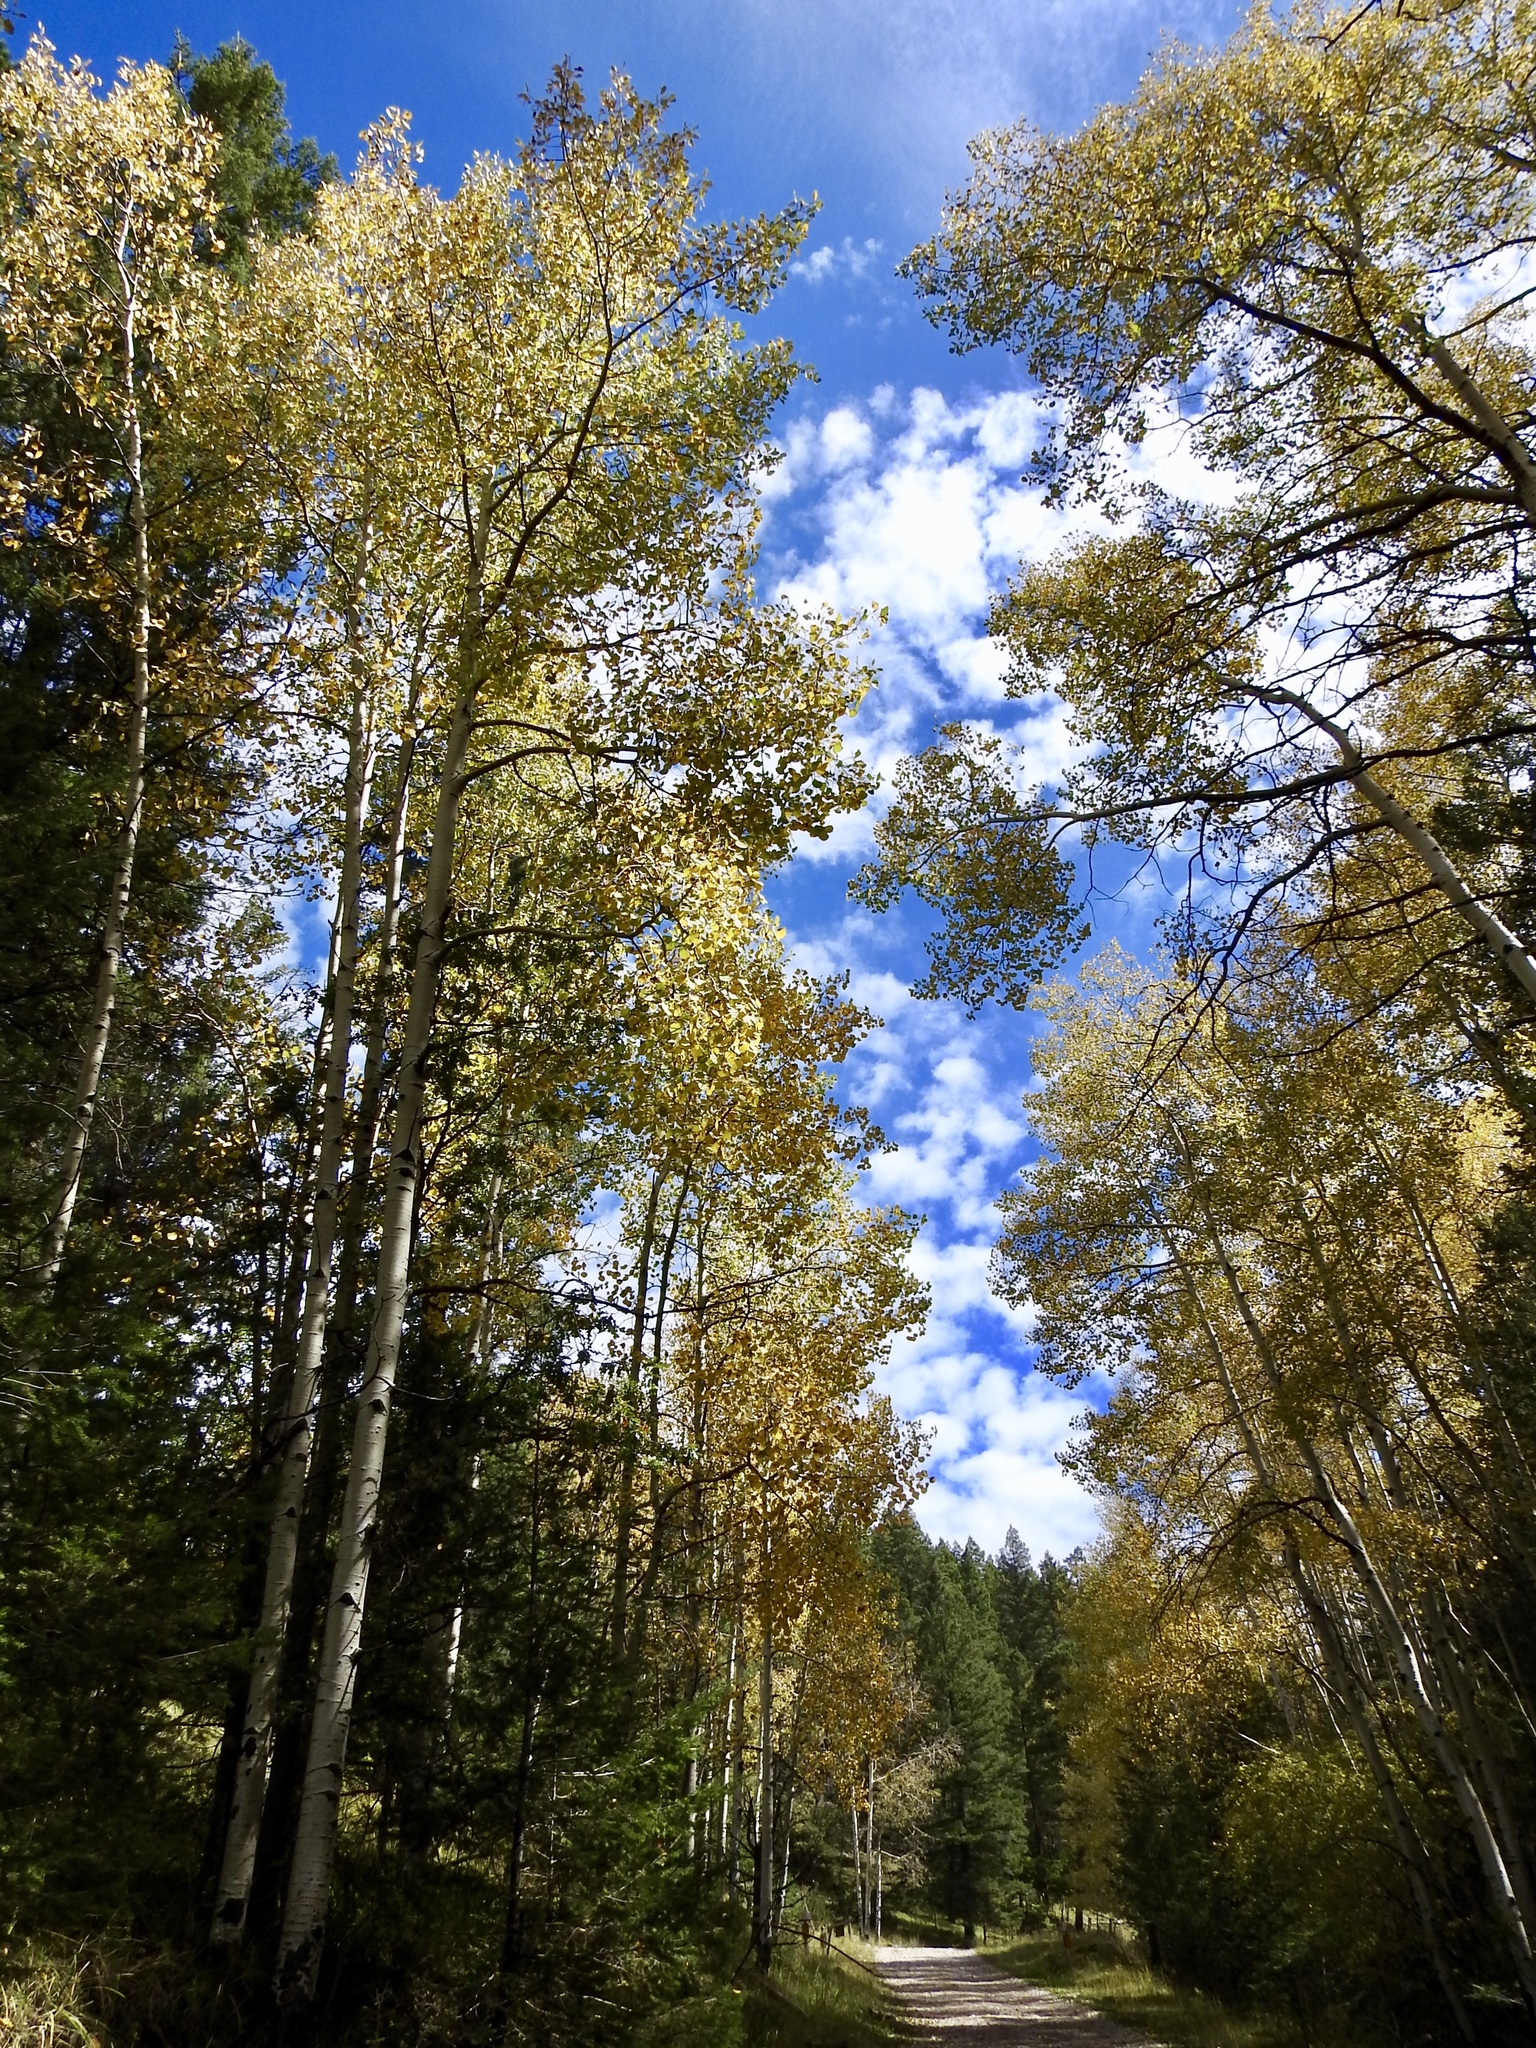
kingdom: Plantae
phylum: Tracheophyta
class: Magnoliopsida
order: Malpighiales
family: Salicaceae
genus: Populus
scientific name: Populus tremuloides
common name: Quaking aspen
